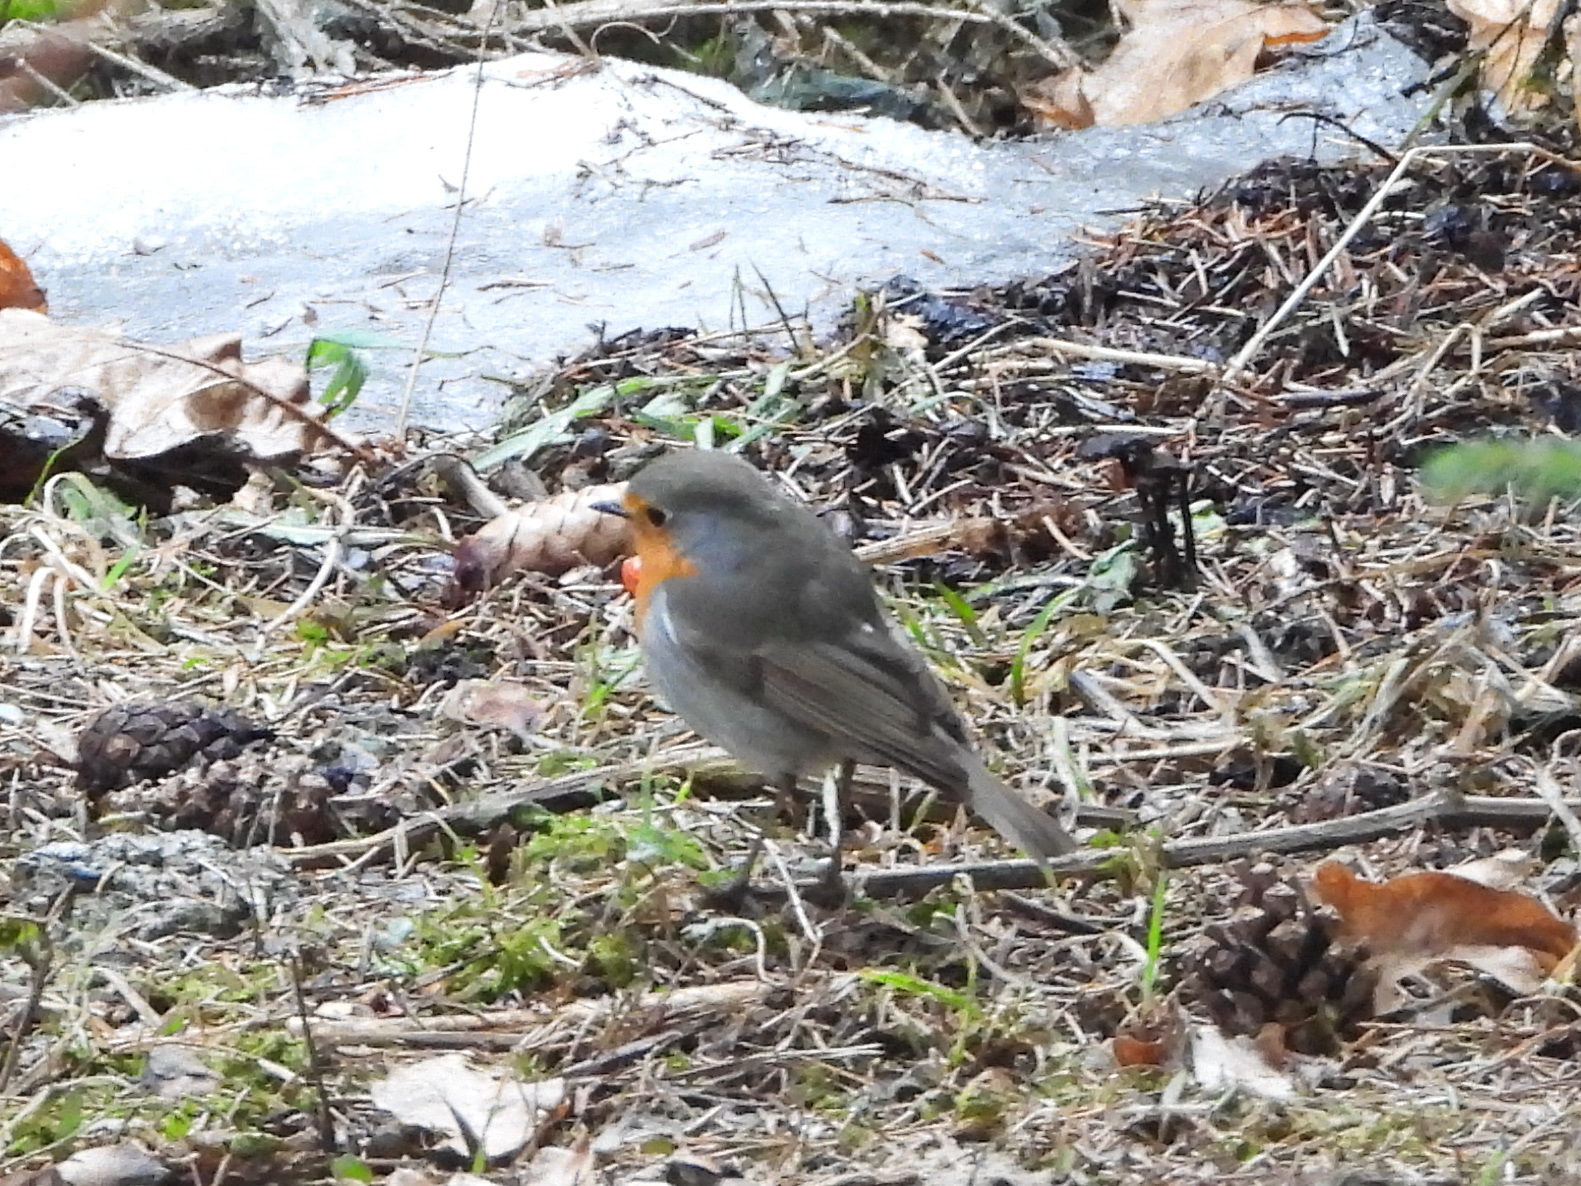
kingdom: Animalia
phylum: Chordata
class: Aves
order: Passeriformes
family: Muscicapidae
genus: Erithacus
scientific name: Erithacus rubecula
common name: European robin
